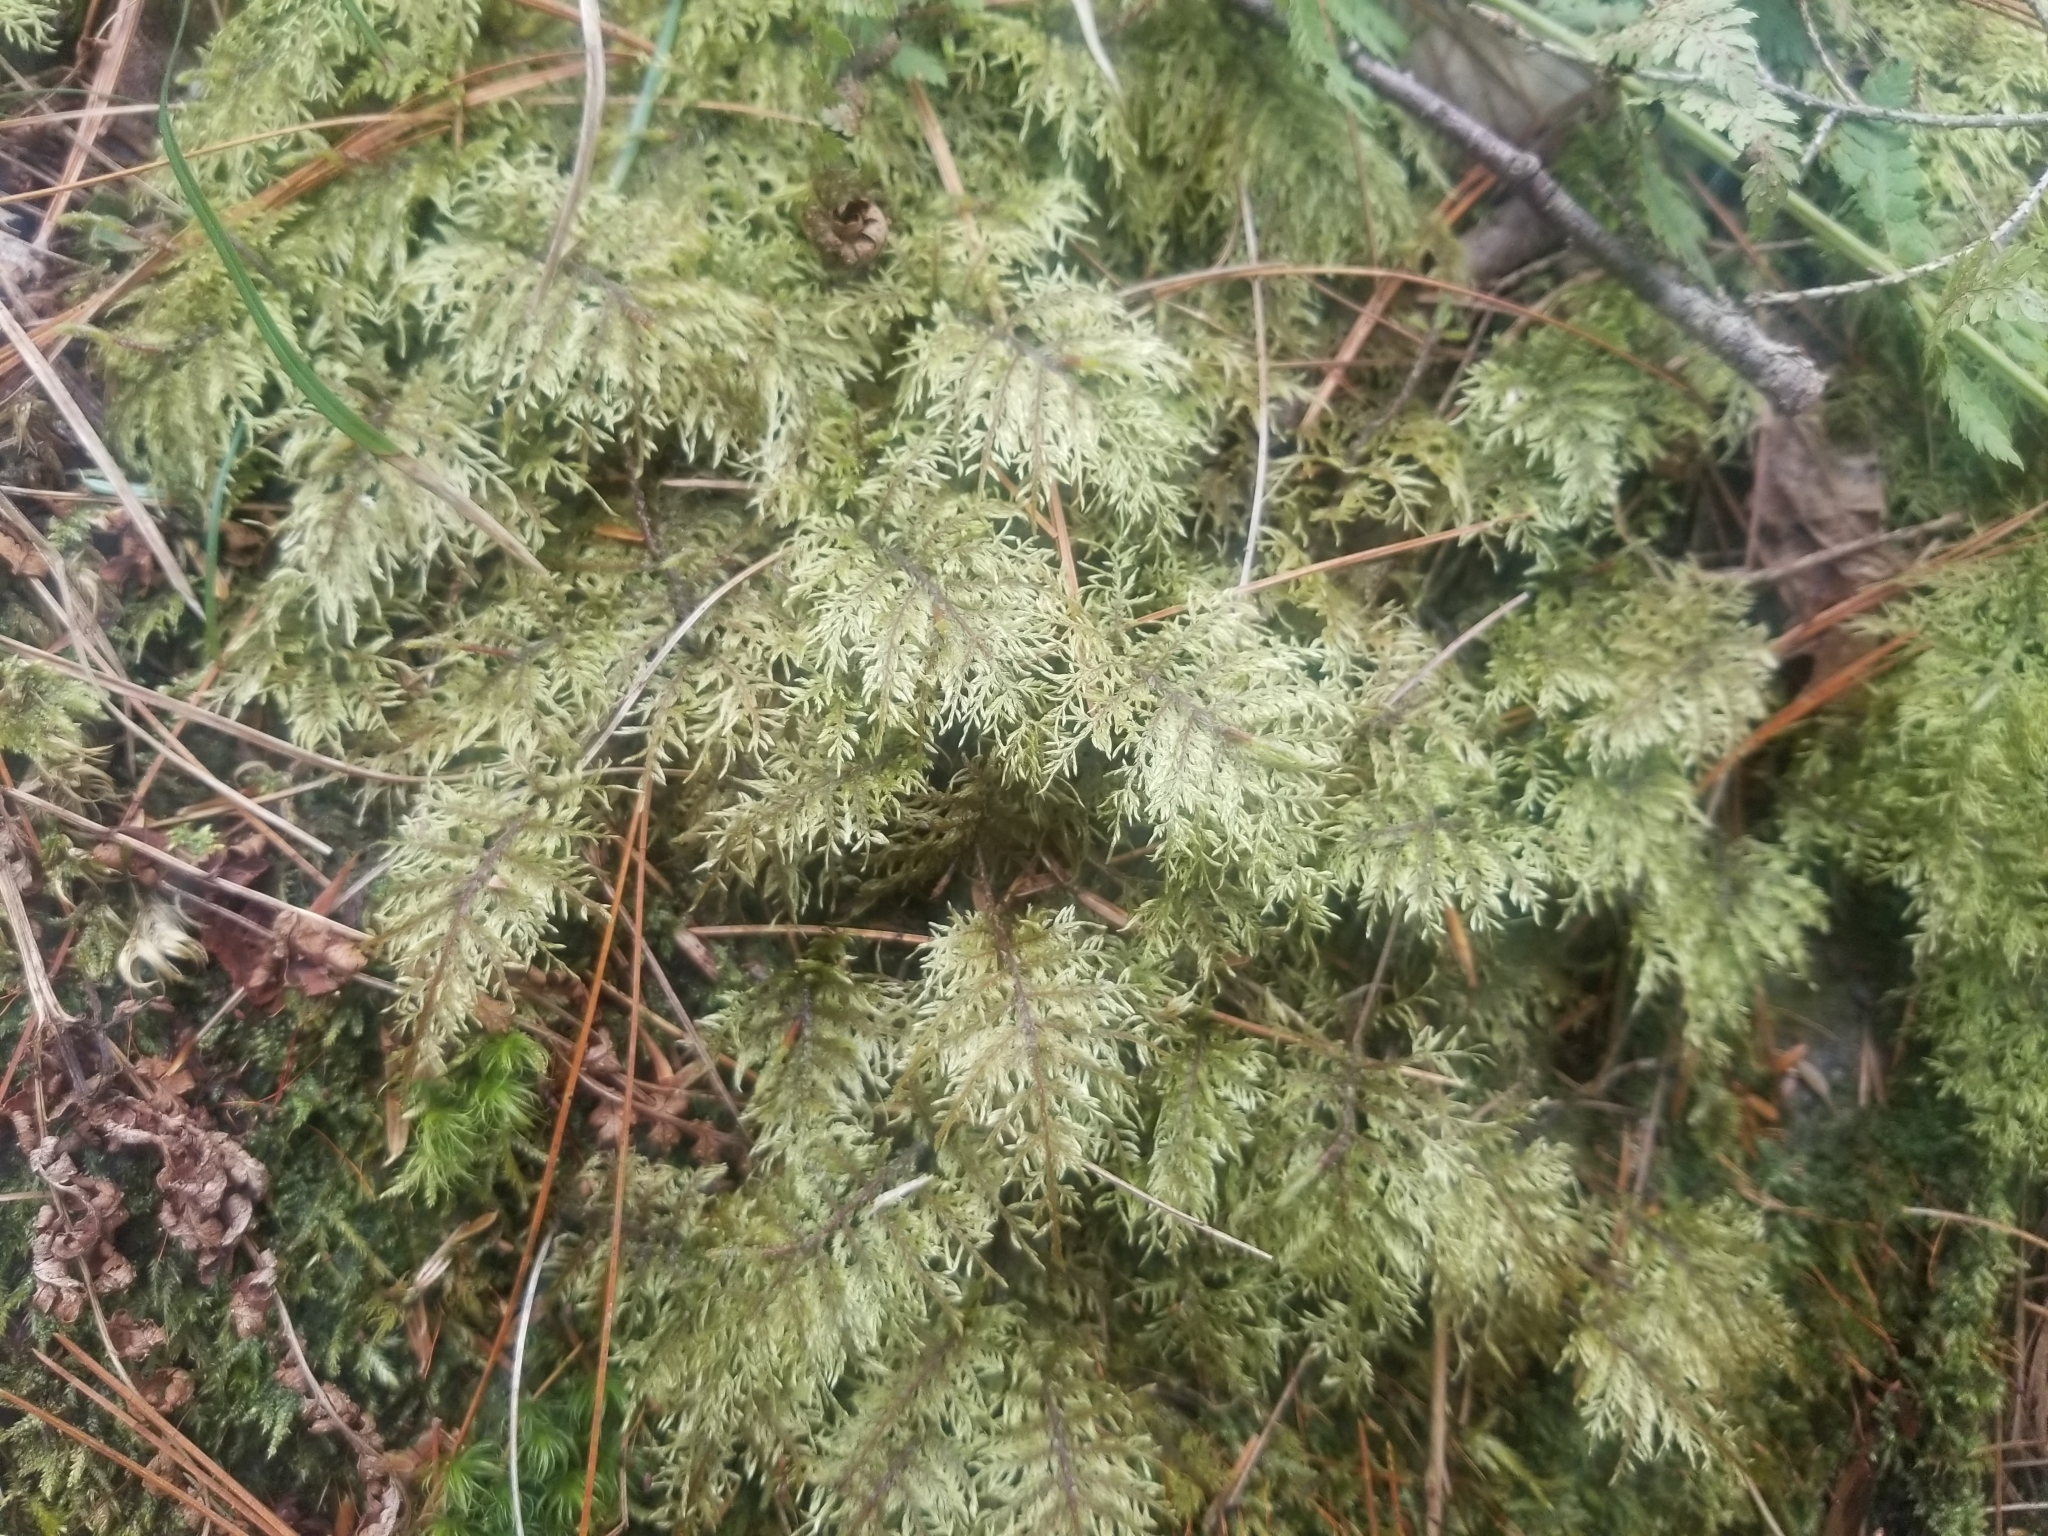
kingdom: Plantae
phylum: Bryophyta
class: Bryopsida
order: Hypnales
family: Hylocomiaceae
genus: Hylocomium
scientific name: Hylocomium splendens
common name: Stairstep moss
